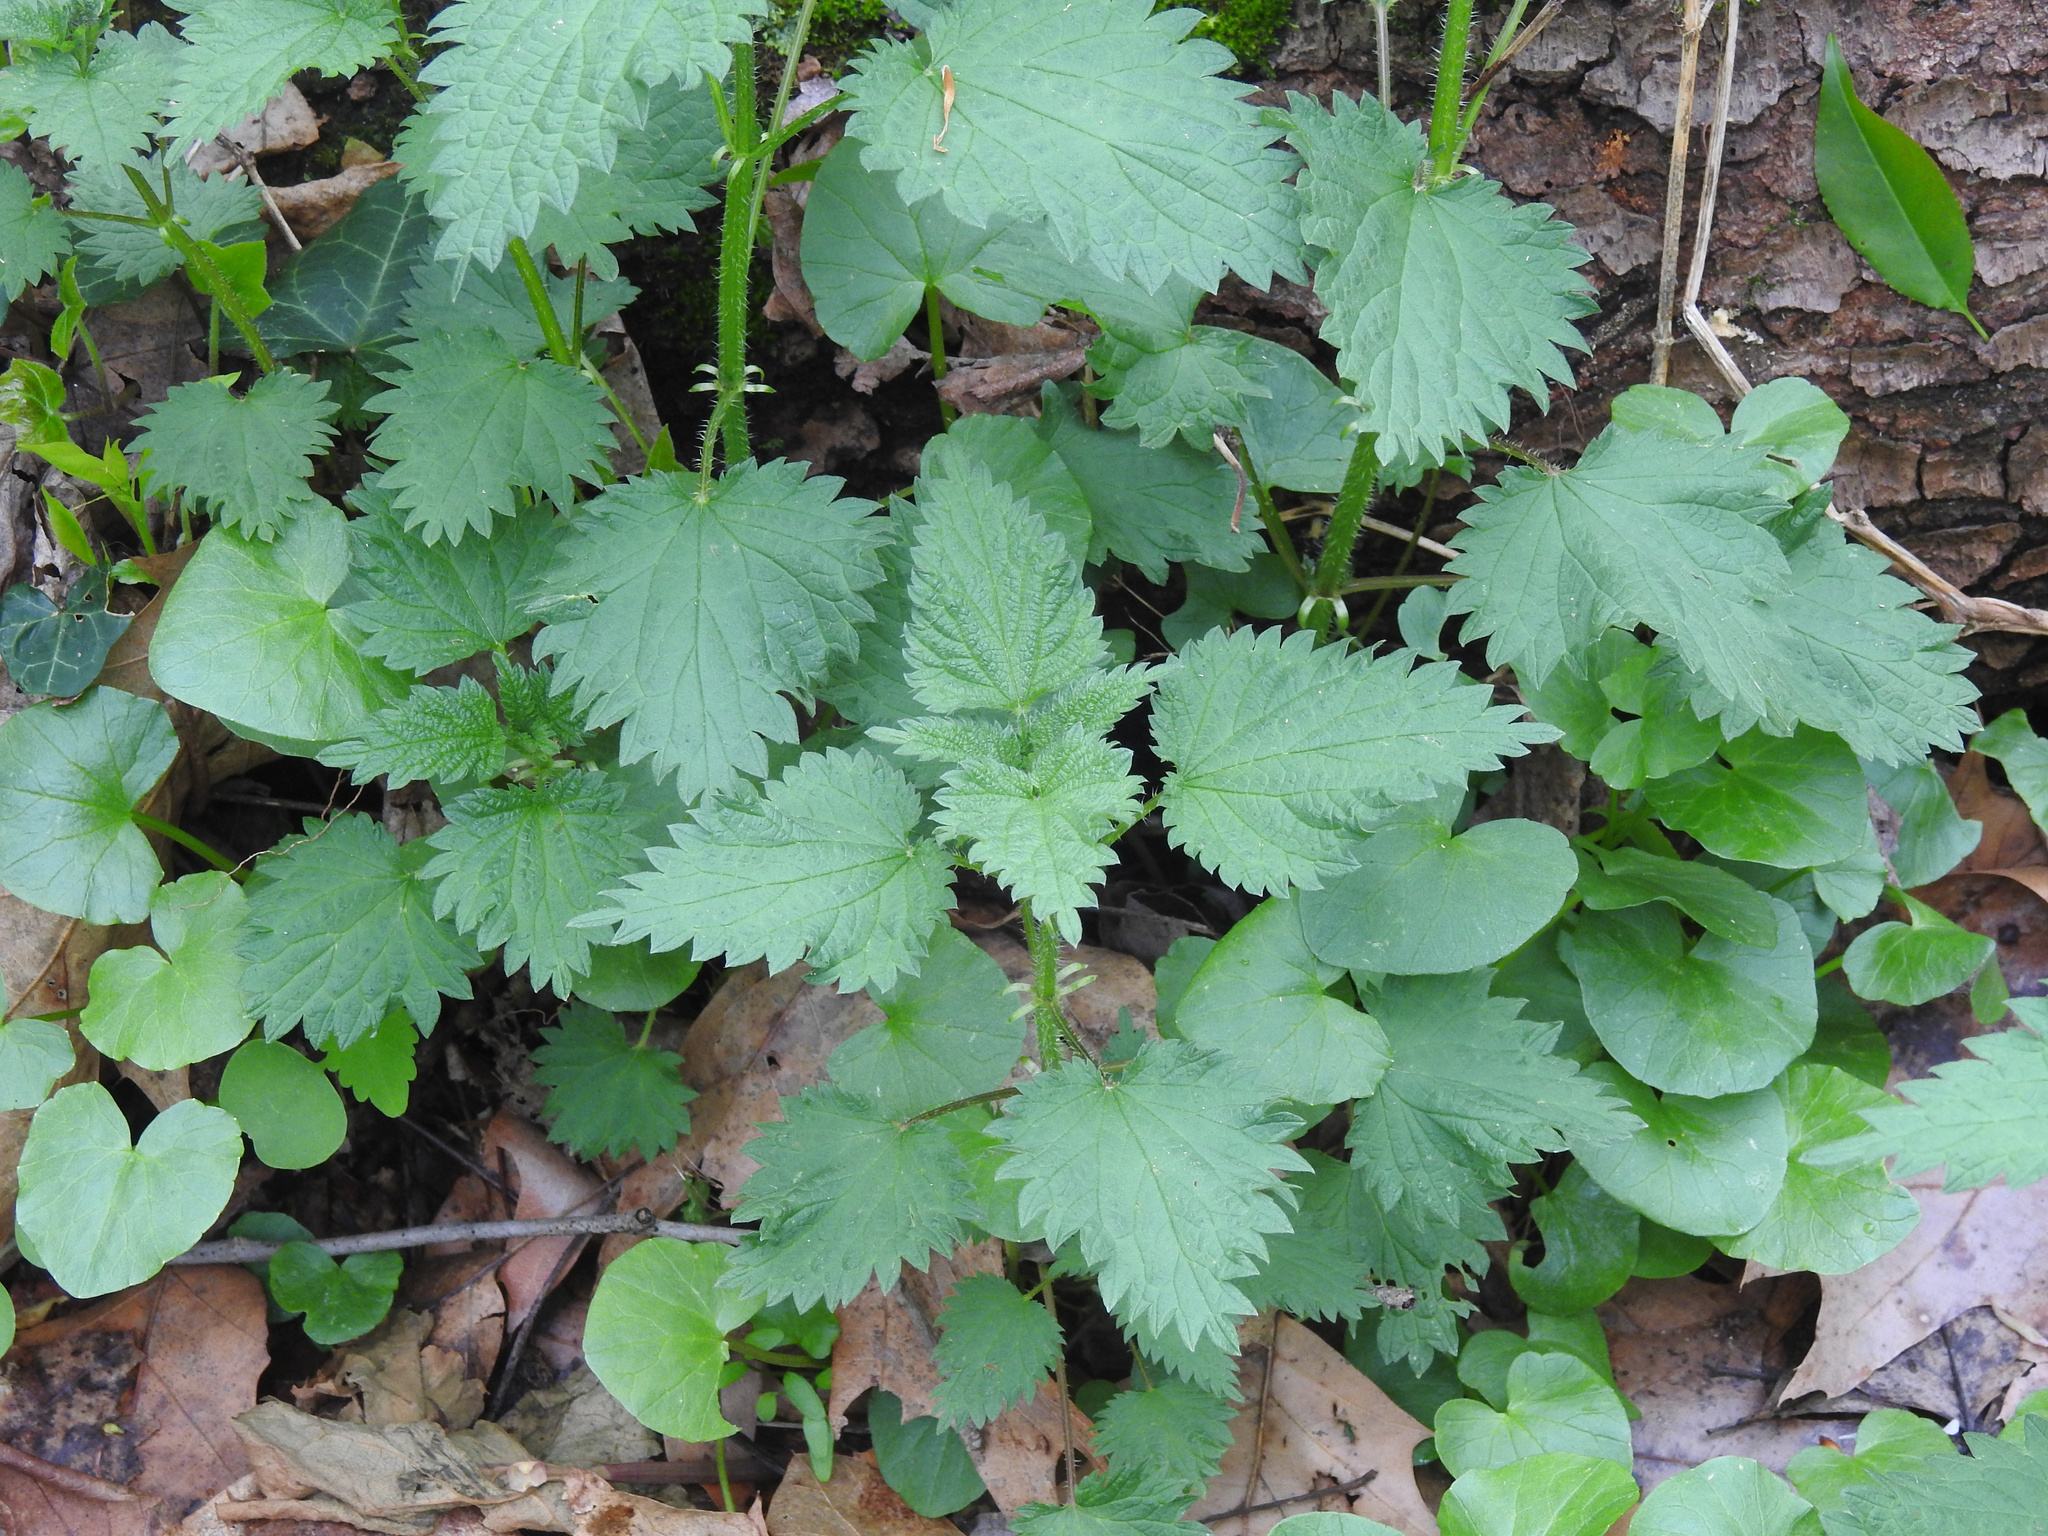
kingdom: Plantae
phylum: Tracheophyta
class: Magnoliopsida
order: Rosales
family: Urticaceae
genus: Urtica
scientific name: Urtica dioica
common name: Common nettle
